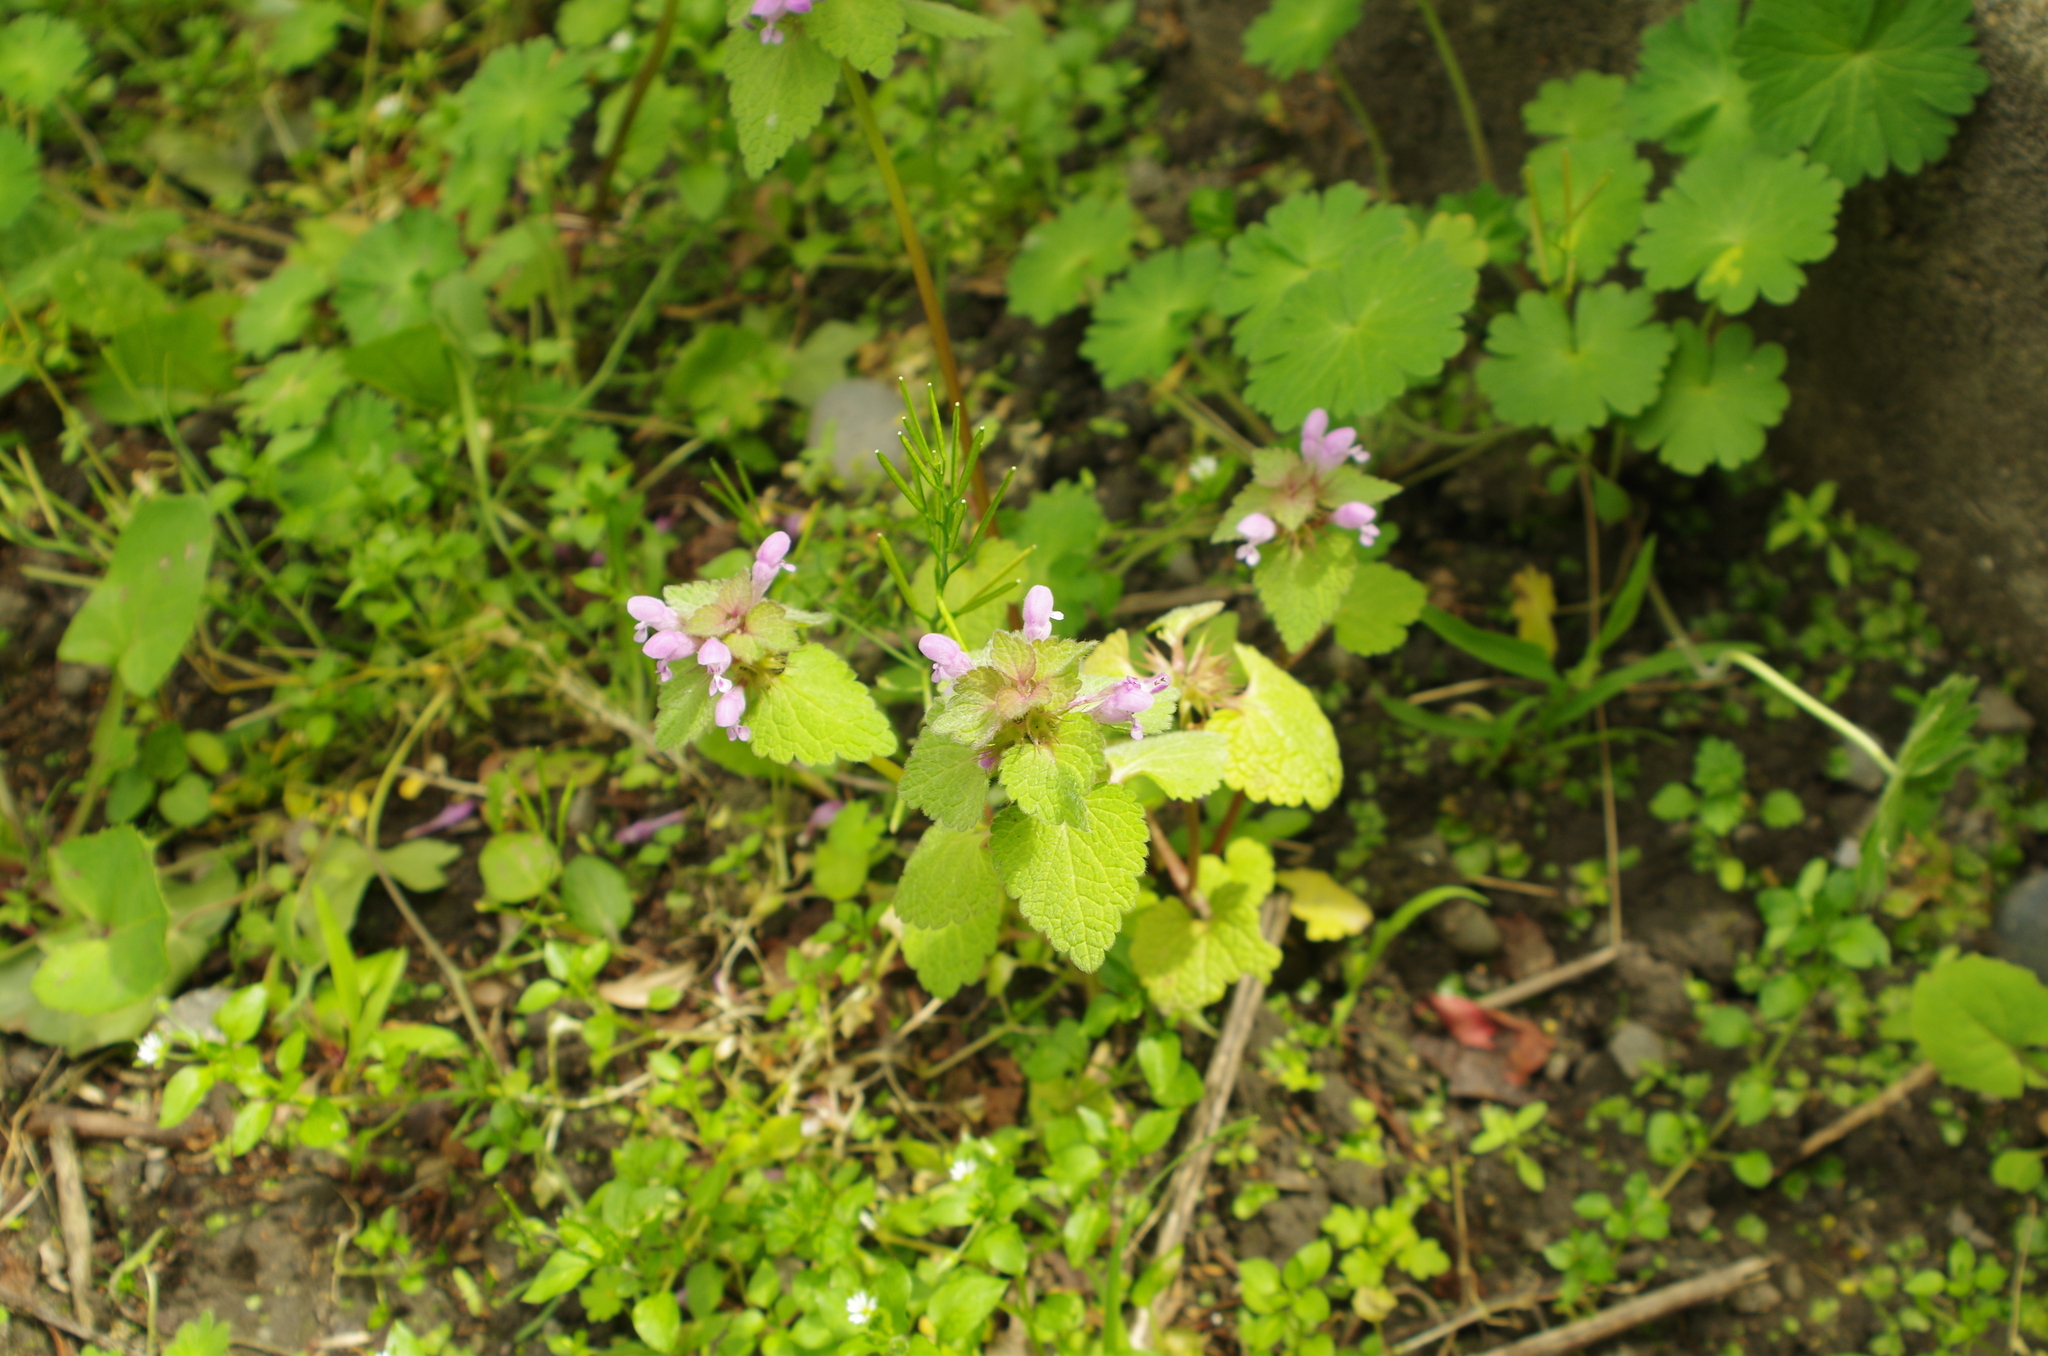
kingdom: Plantae
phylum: Tracheophyta
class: Magnoliopsida
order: Lamiales
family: Lamiaceae
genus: Lamium
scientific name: Lamium purpureum
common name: Red dead-nettle
